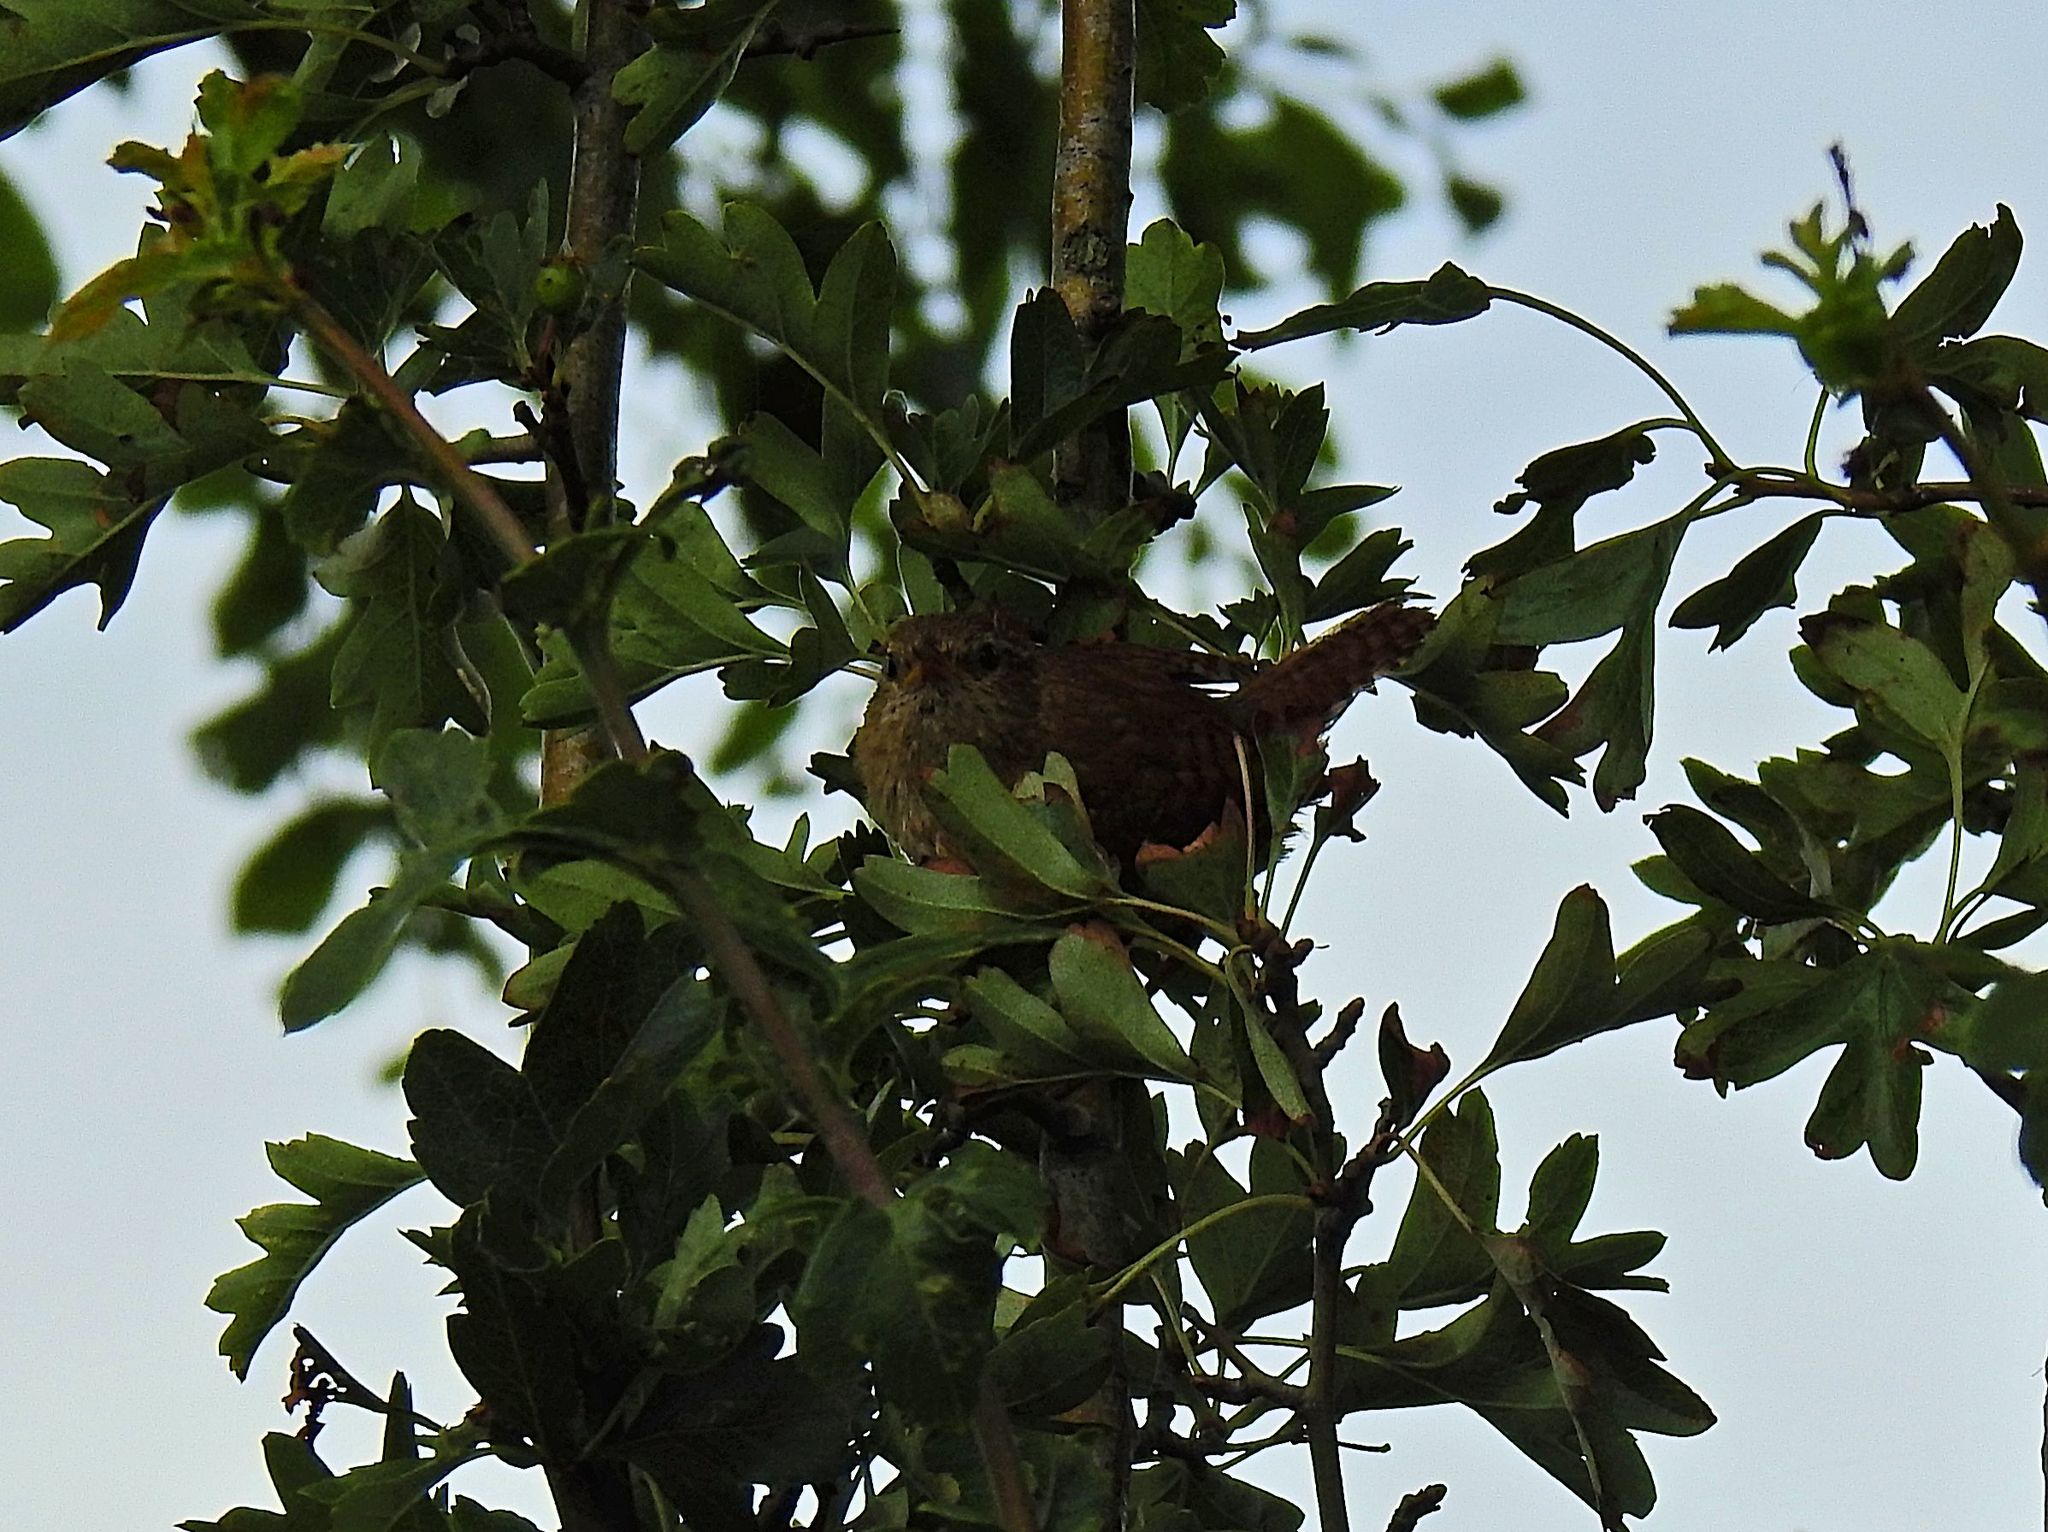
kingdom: Animalia
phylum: Chordata
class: Aves
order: Passeriformes
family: Troglodytidae
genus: Troglodytes
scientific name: Troglodytes troglodytes
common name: Eurasian wren
